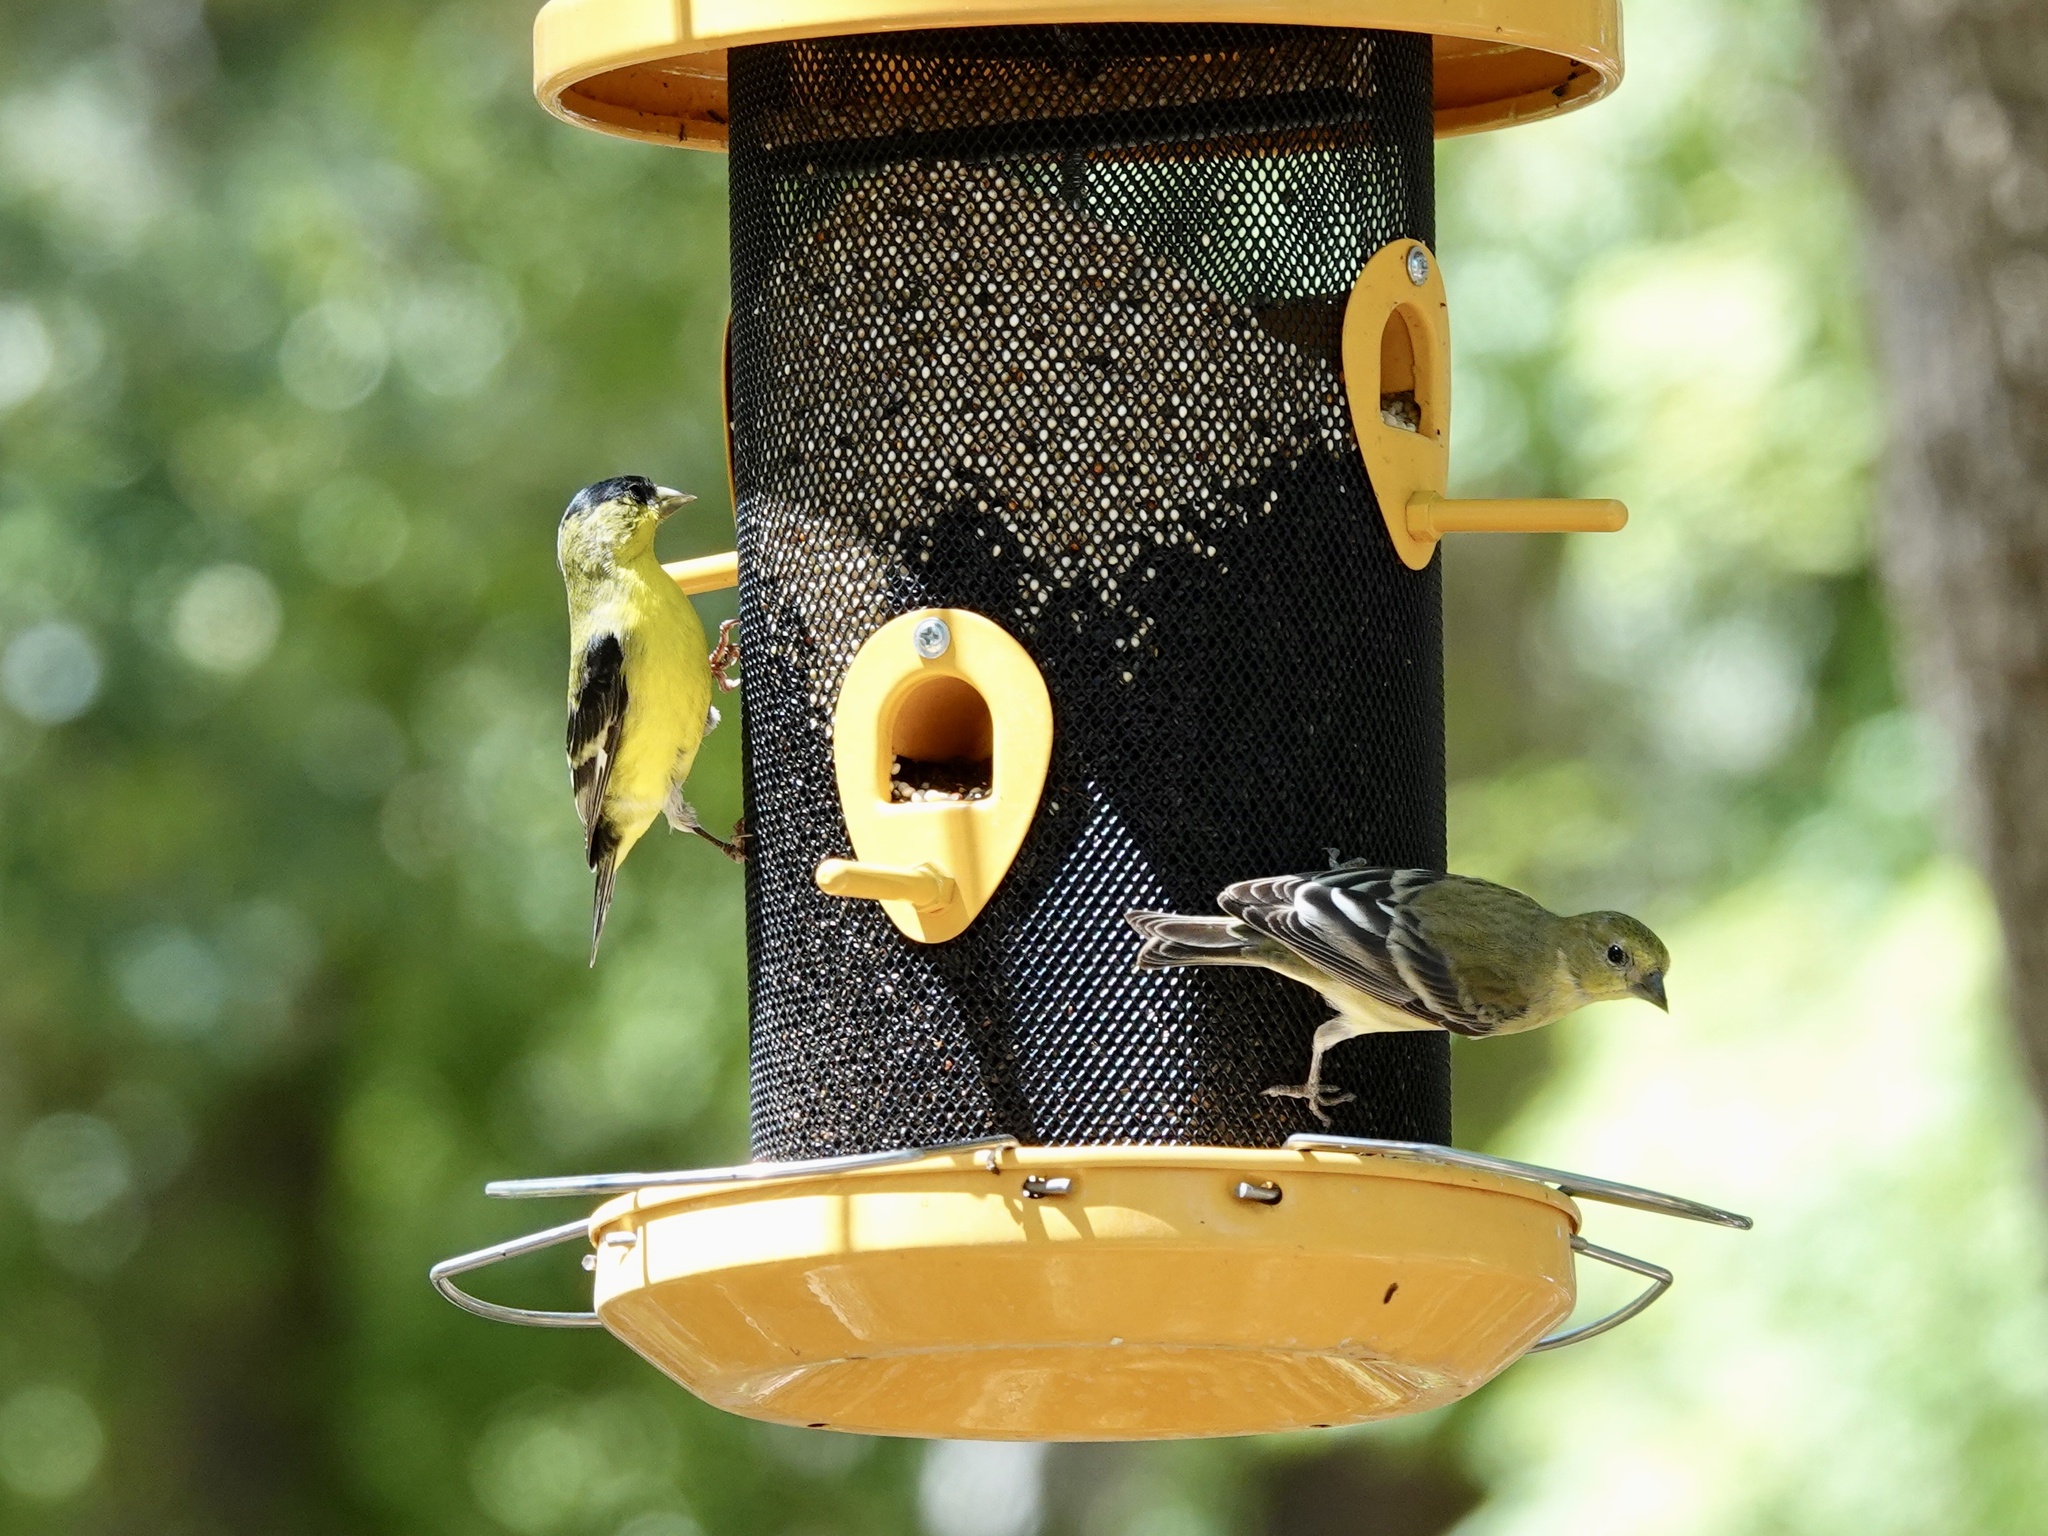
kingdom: Animalia
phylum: Chordata
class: Aves
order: Passeriformes
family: Fringillidae
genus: Spinus
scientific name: Spinus psaltria
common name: Lesser goldfinch
